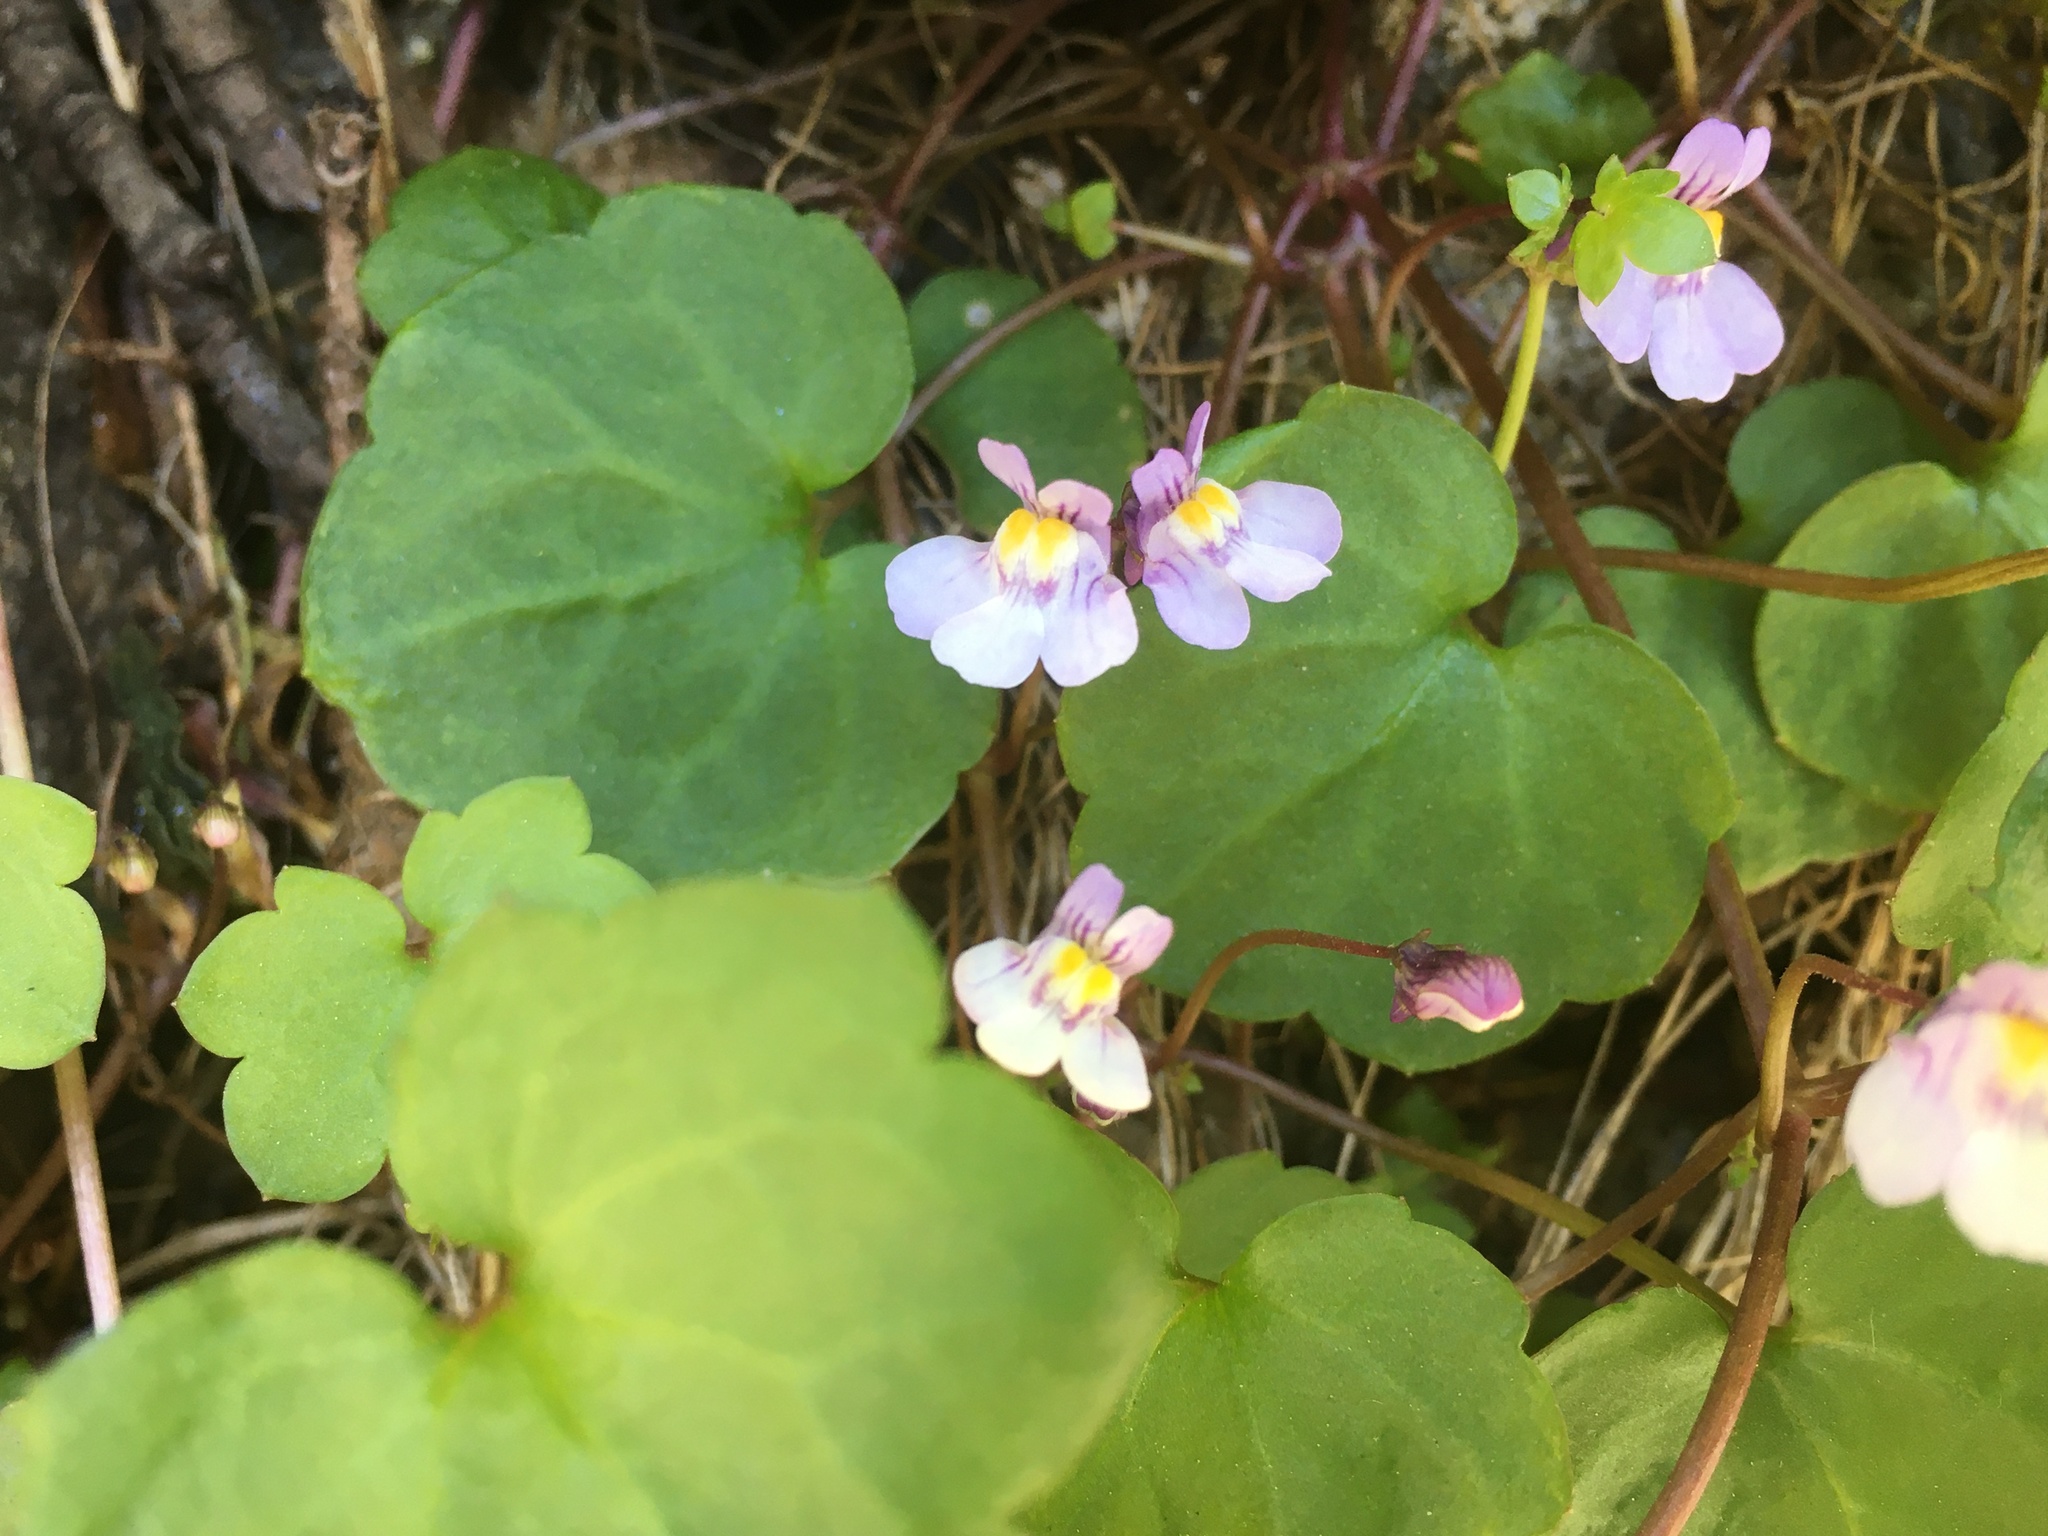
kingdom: Plantae
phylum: Tracheophyta
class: Magnoliopsida
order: Lamiales
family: Plantaginaceae
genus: Cymbalaria
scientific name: Cymbalaria muralis
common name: Ivy-leaved toadflax
